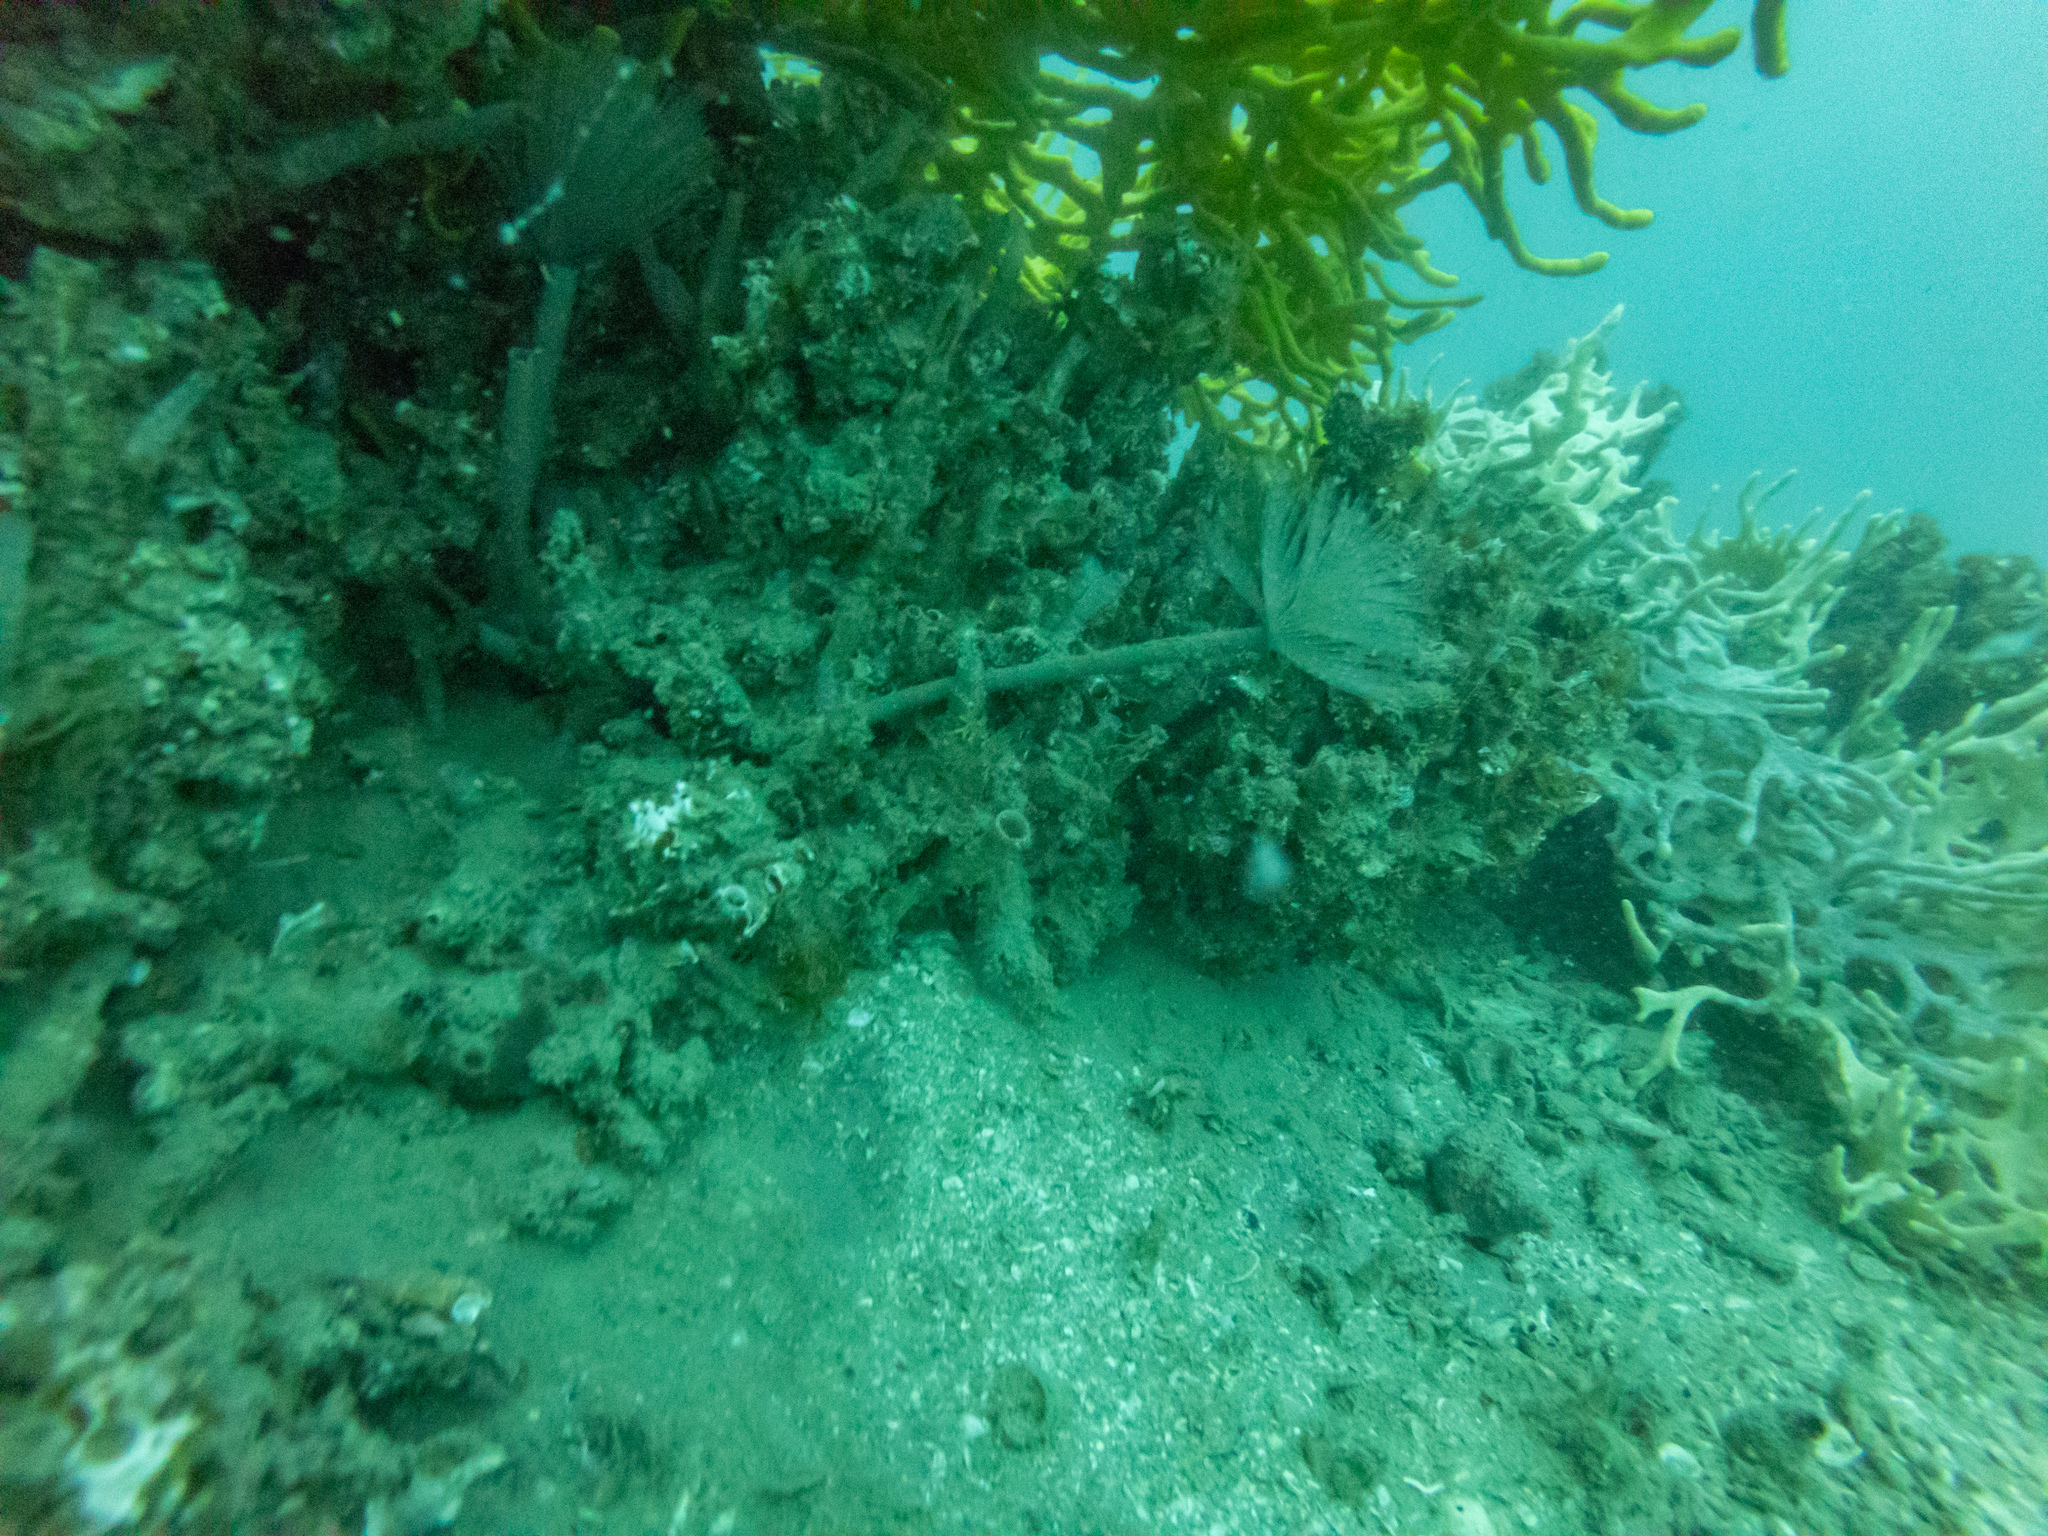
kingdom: Animalia
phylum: Annelida
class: Polychaeta
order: Sabellida
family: Sabellidae
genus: Sabella
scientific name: Sabella spallanzanii
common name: Feather duster worm
